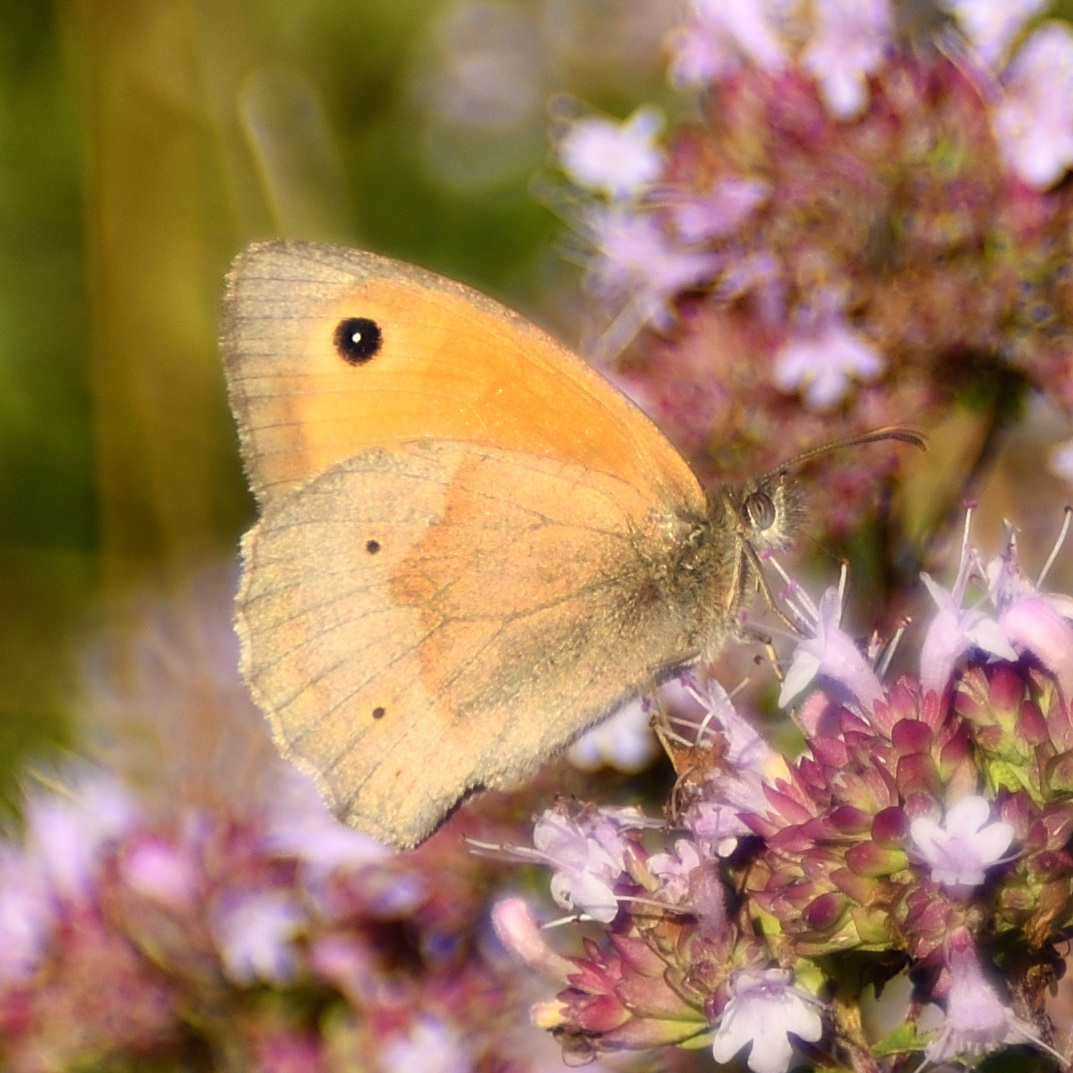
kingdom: Animalia
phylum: Arthropoda
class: Insecta
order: Lepidoptera
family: Nymphalidae
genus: Maniola
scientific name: Maniola jurtina
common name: Meadow brown
